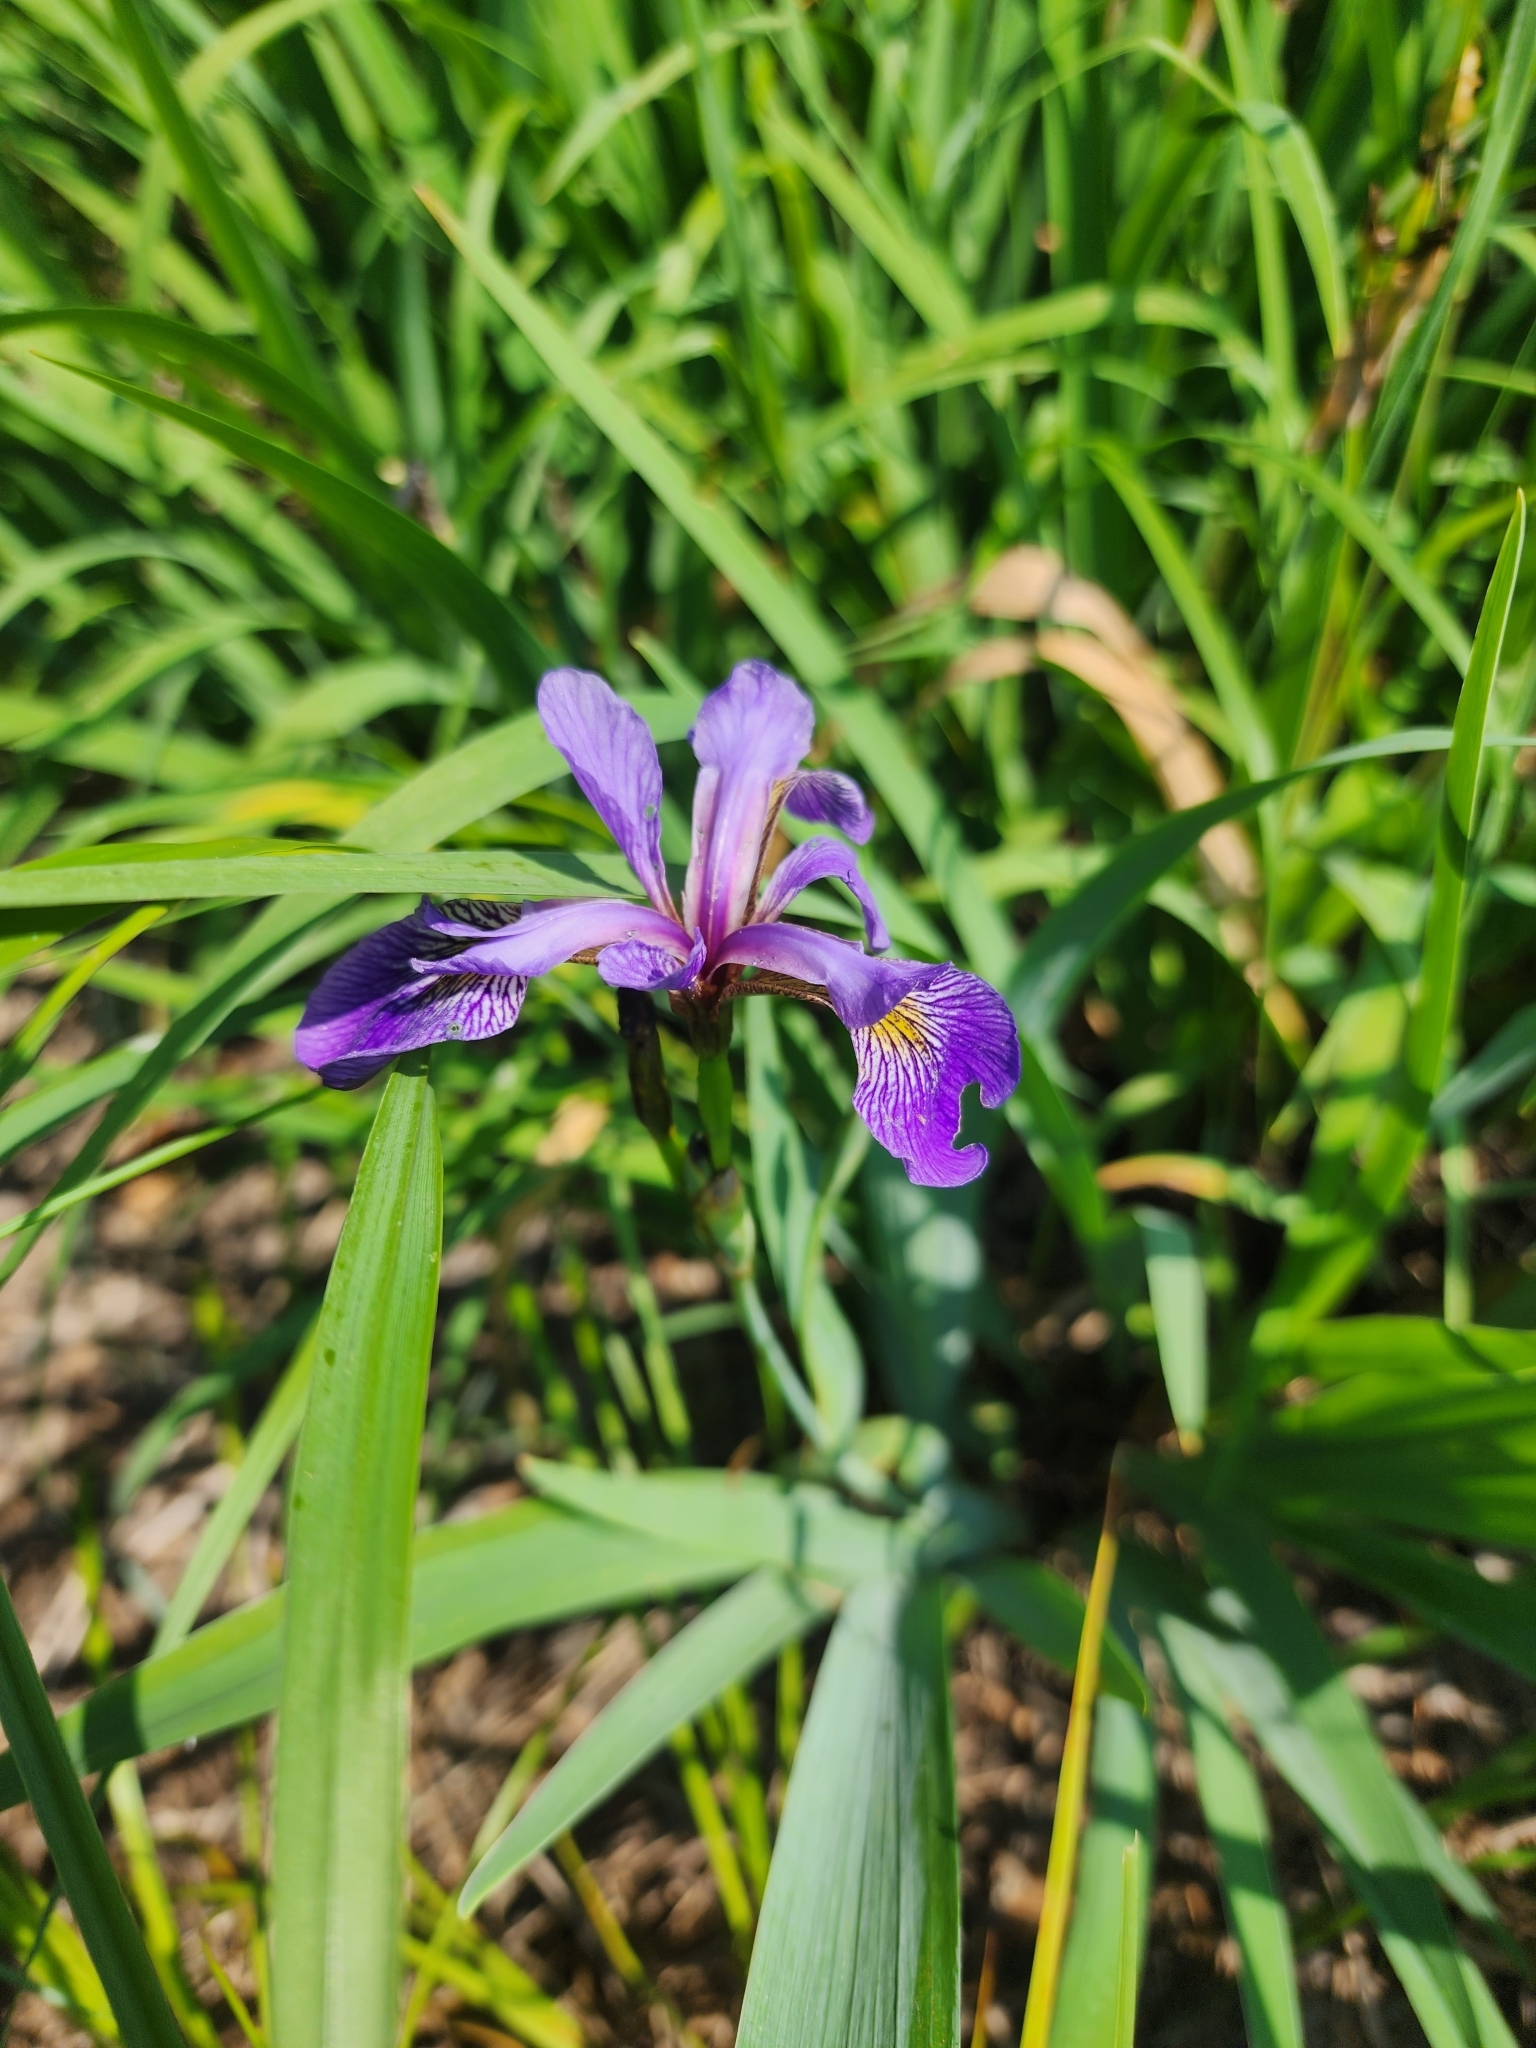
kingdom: Plantae
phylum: Tracheophyta
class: Liliopsida
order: Asparagales
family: Iridaceae
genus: Iris
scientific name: Iris versicolor
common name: Purple iris
